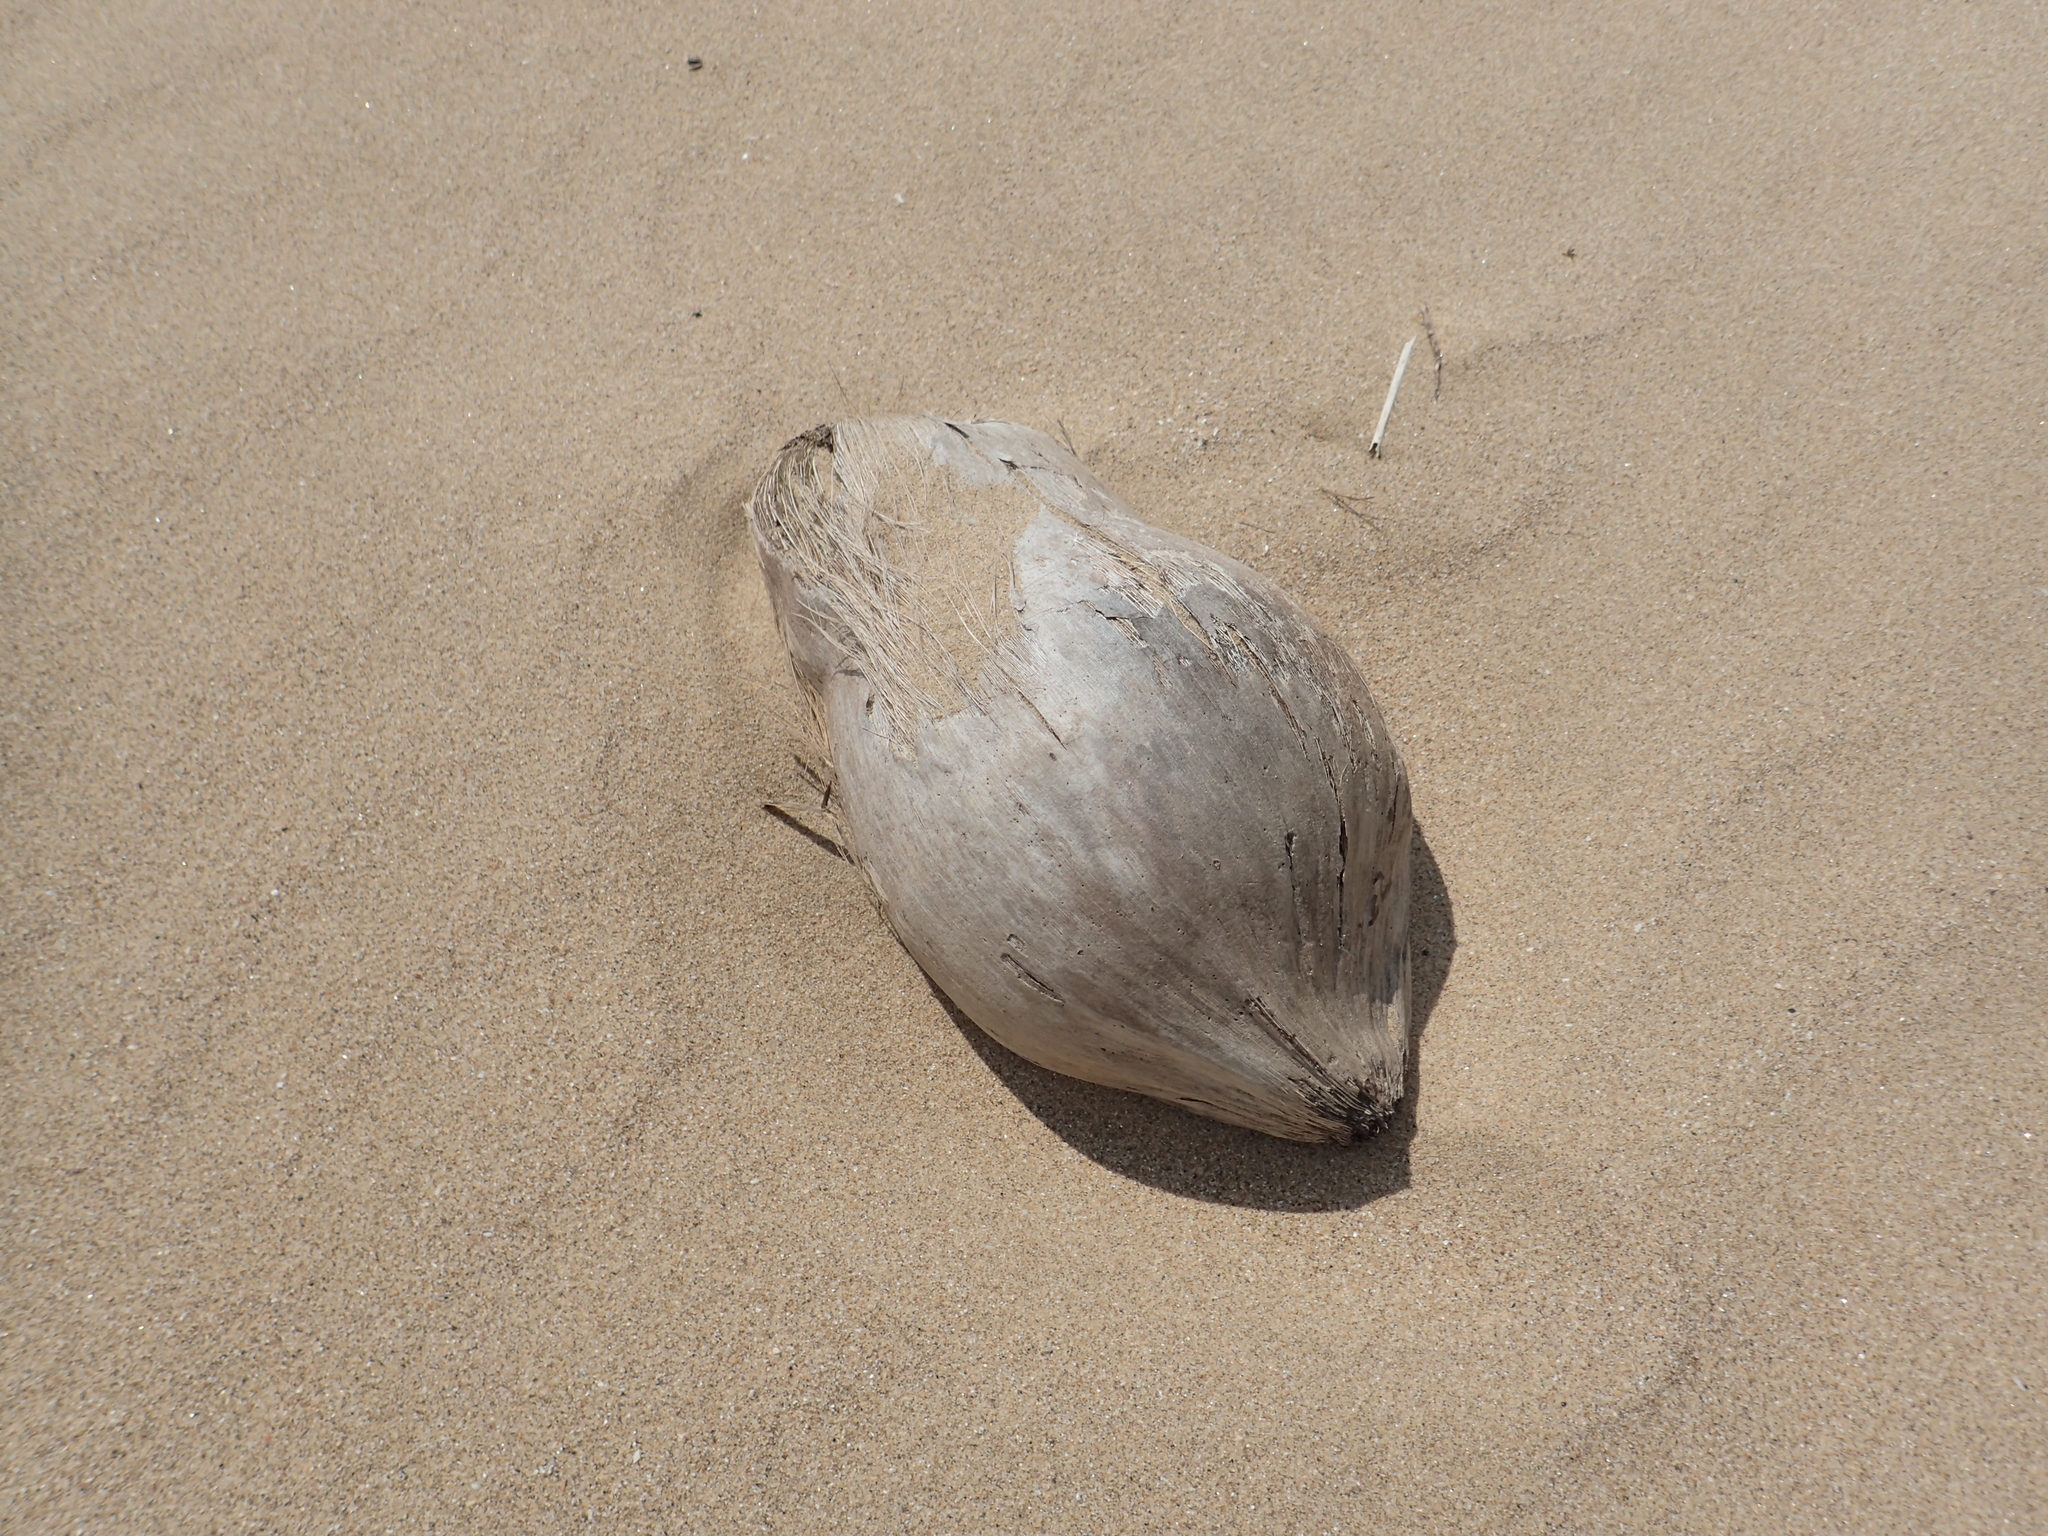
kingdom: Plantae
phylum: Tracheophyta
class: Liliopsida
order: Arecales
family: Arecaceae
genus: Cocos
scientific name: Cocos nucifera
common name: Coconut palm
